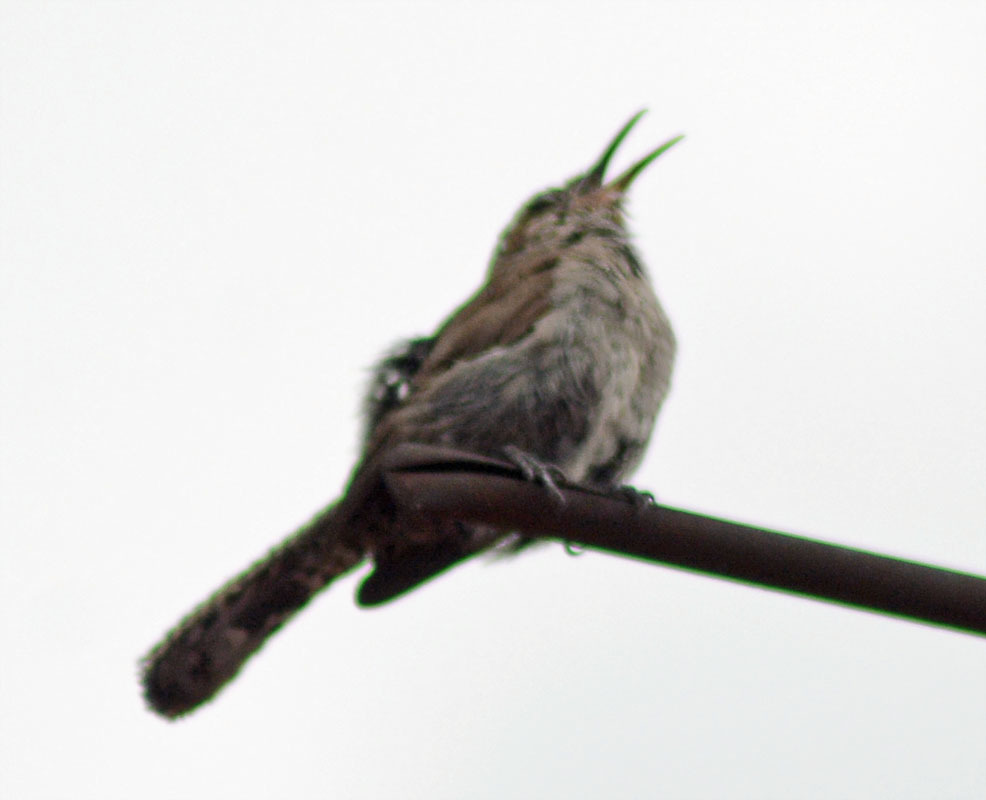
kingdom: Animalia
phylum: Chordata
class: Aves
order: Passeriformes
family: Troglodytidae
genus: Thryomanes
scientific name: Thryomanes bewickii
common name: Bewick's wren
